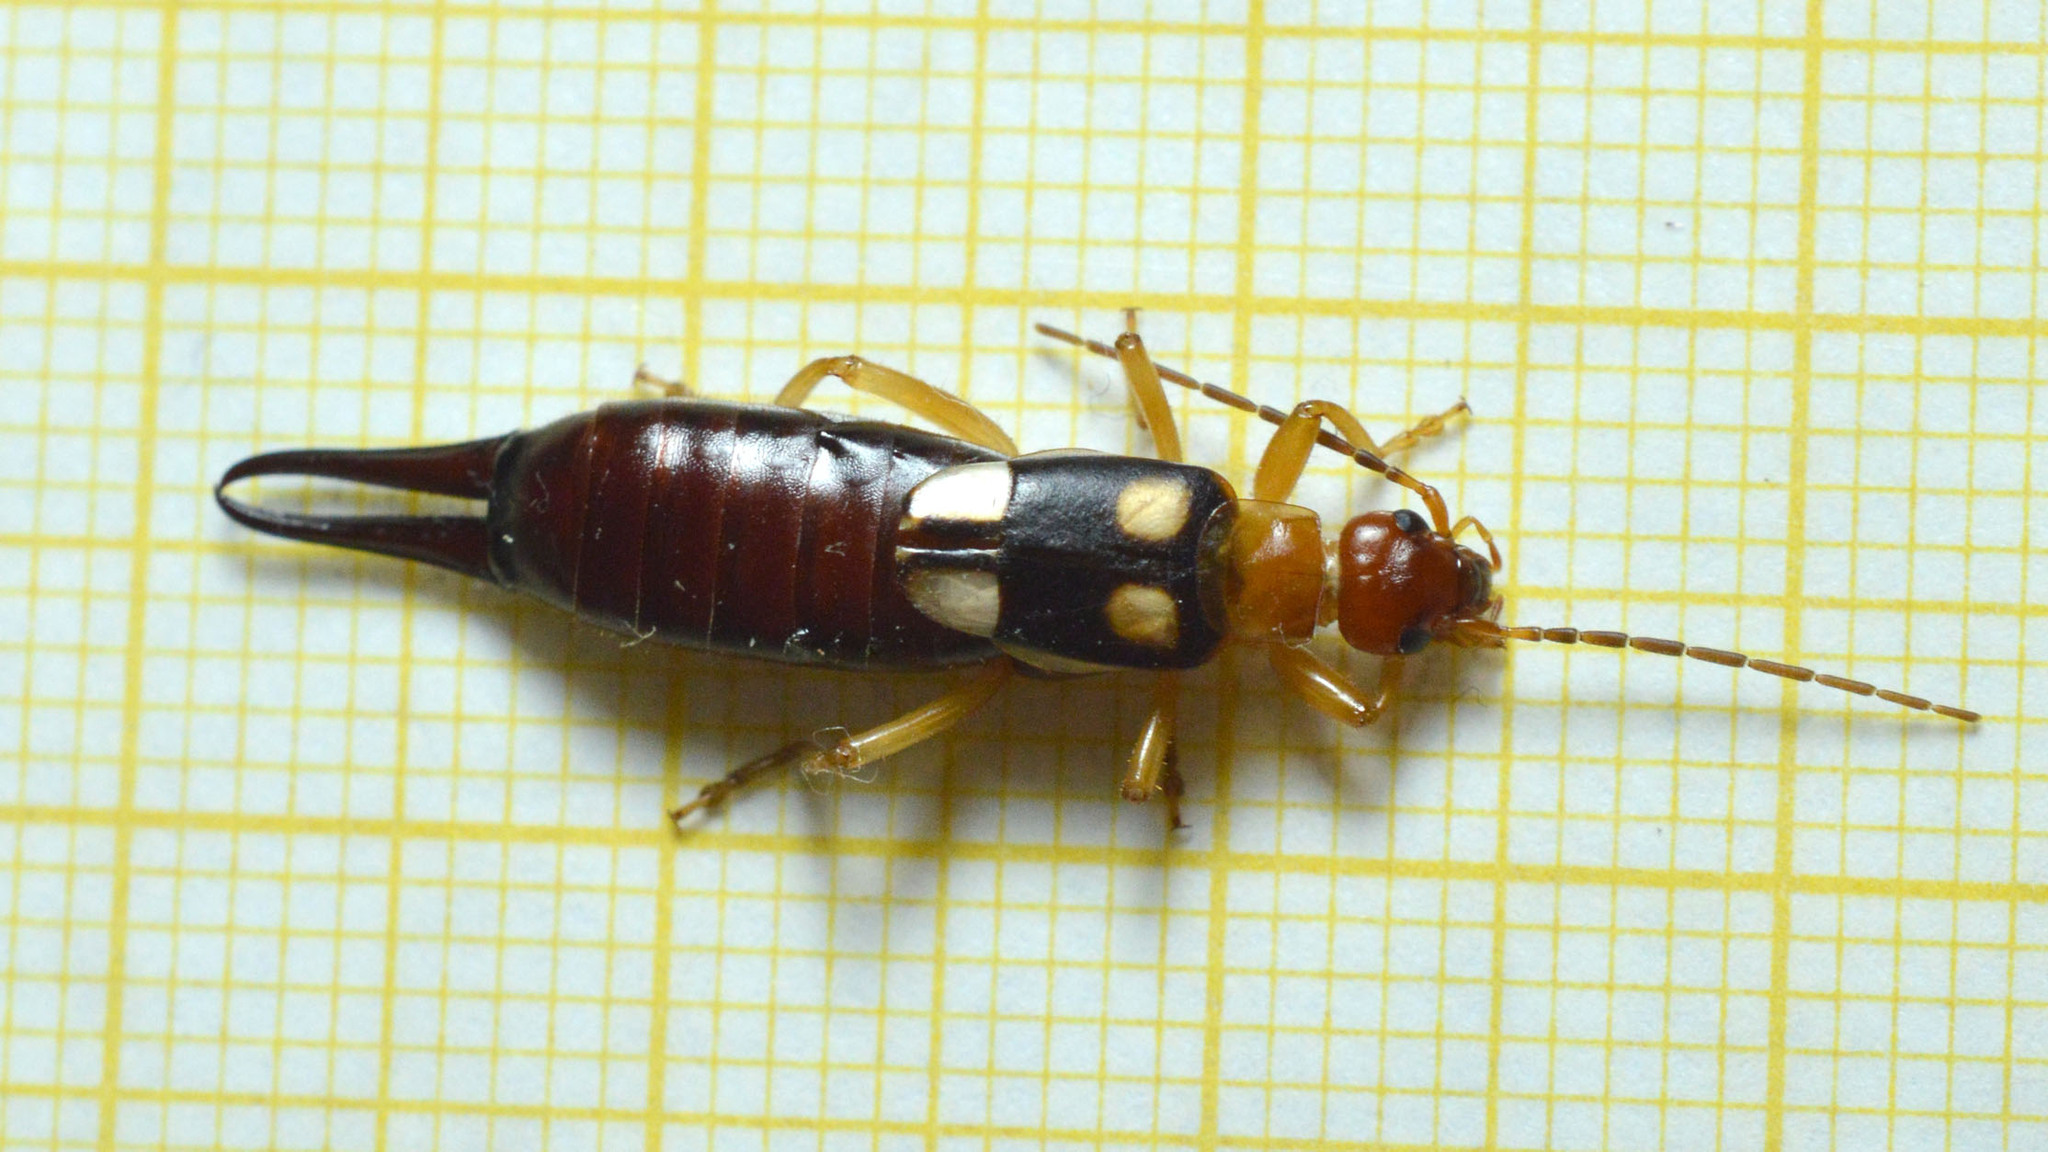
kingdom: Animalia
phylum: Arthropoda
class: Insecta
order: Dermaptera
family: Forficulidae
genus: Forficula
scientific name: Forficula smyrnensis
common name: Smyrna earwig
